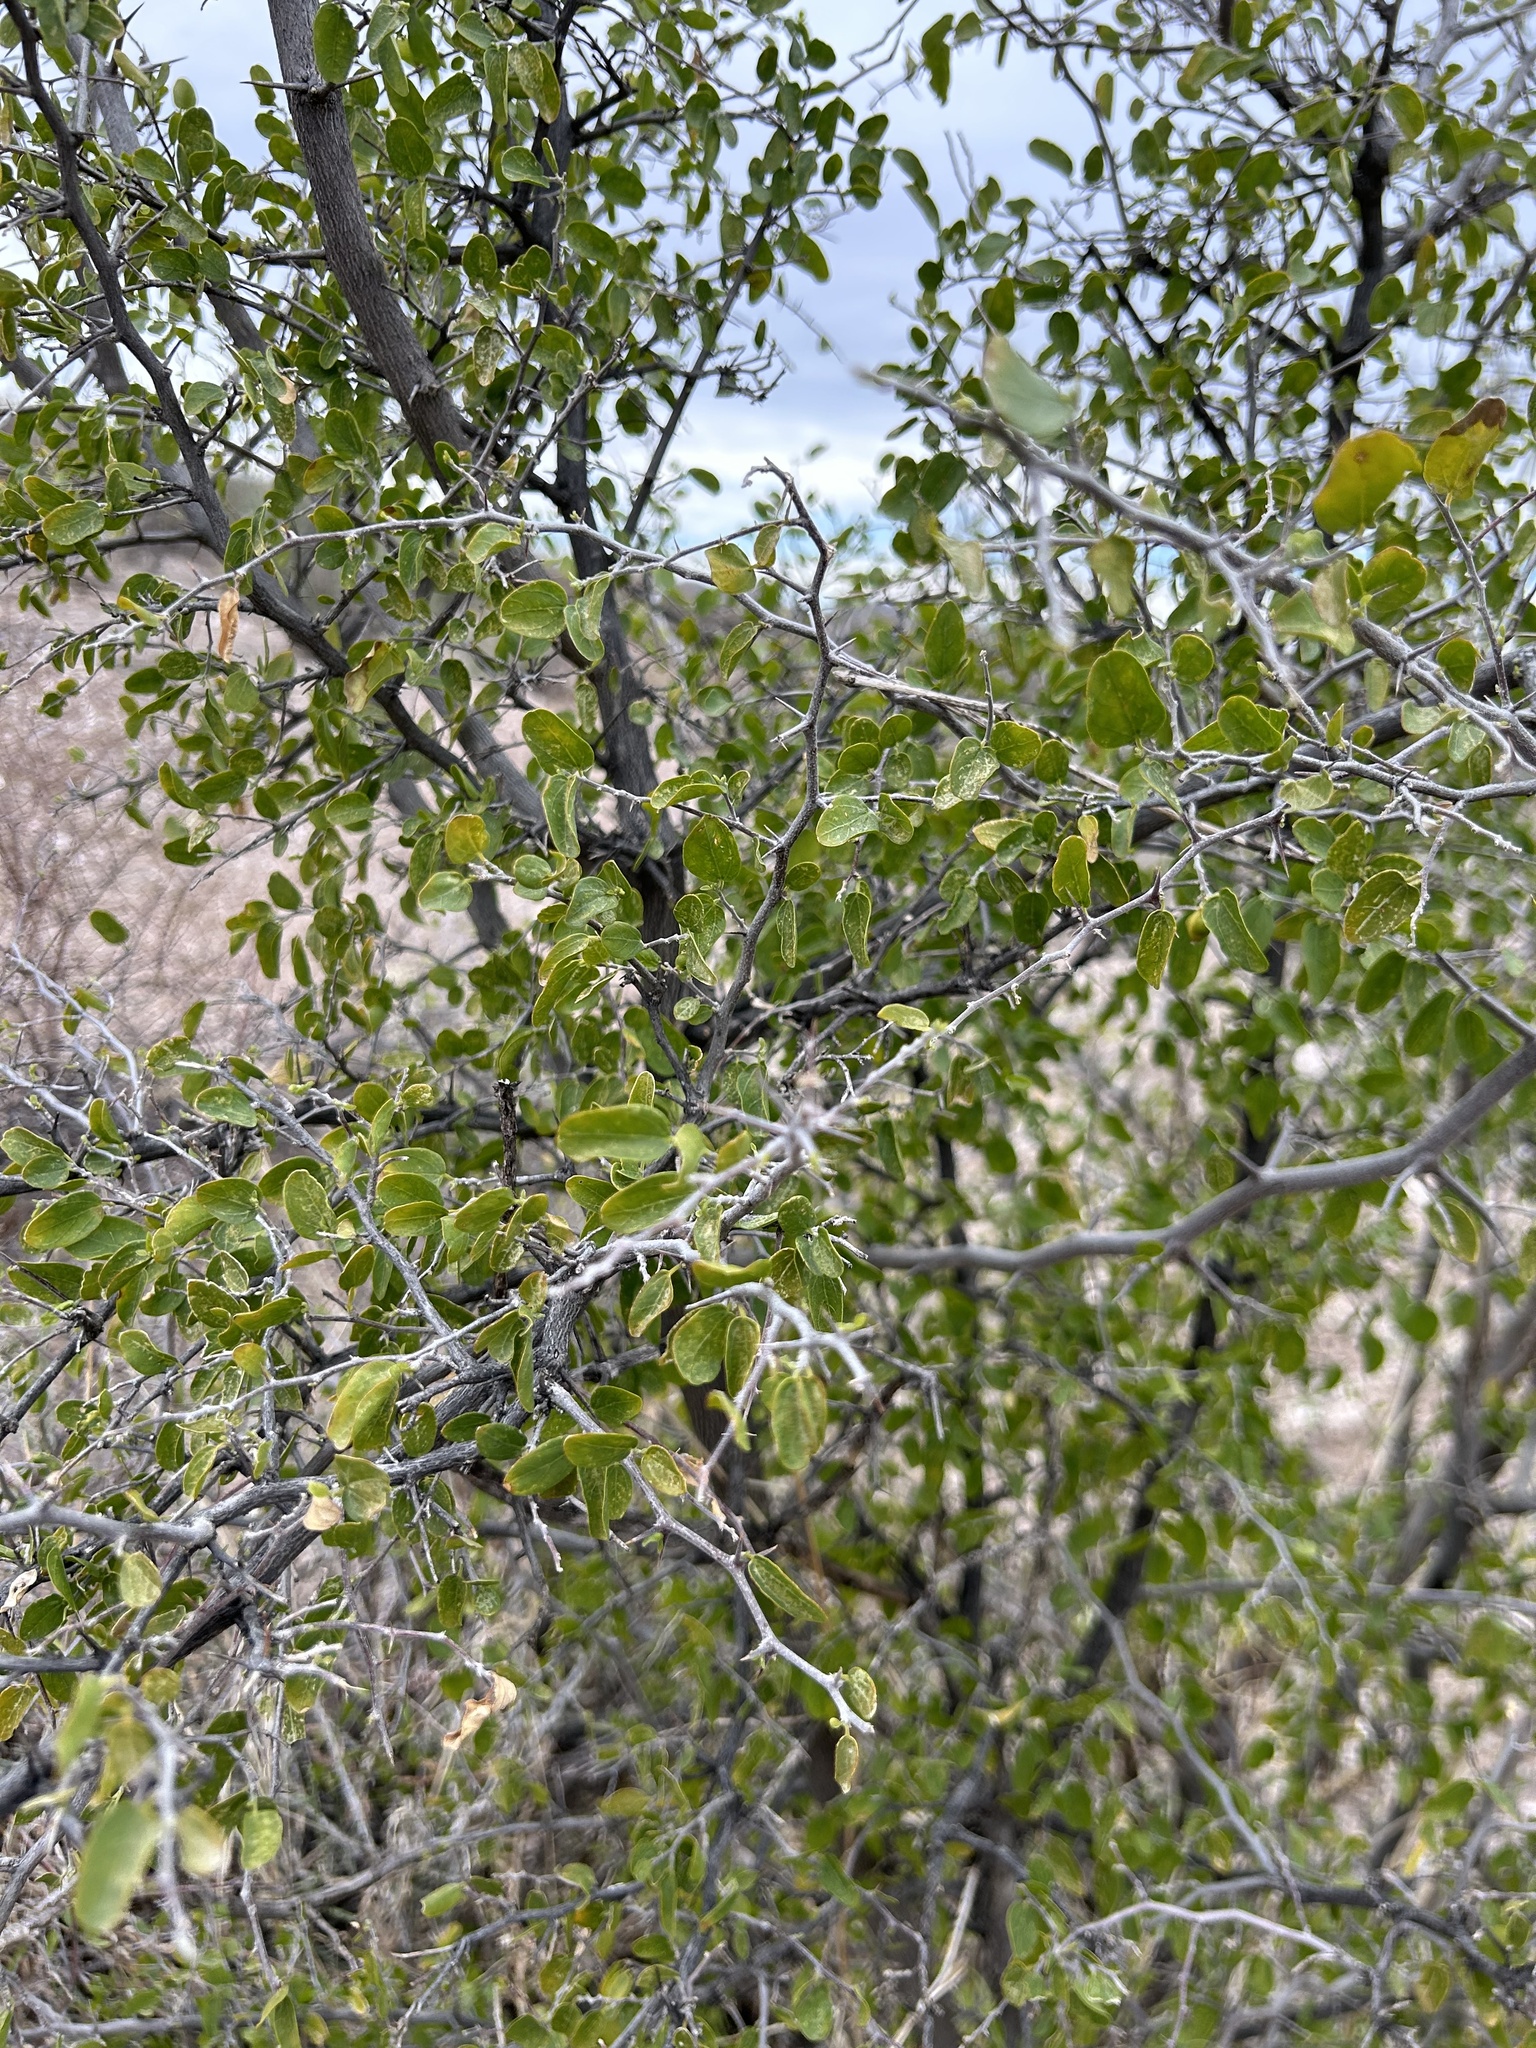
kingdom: Plantae
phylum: Tracheophyta
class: Magnoliopsida
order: Rosales
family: Cannabaceae
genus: Celtis
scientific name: Celtis pallida
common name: Desert hackberry
